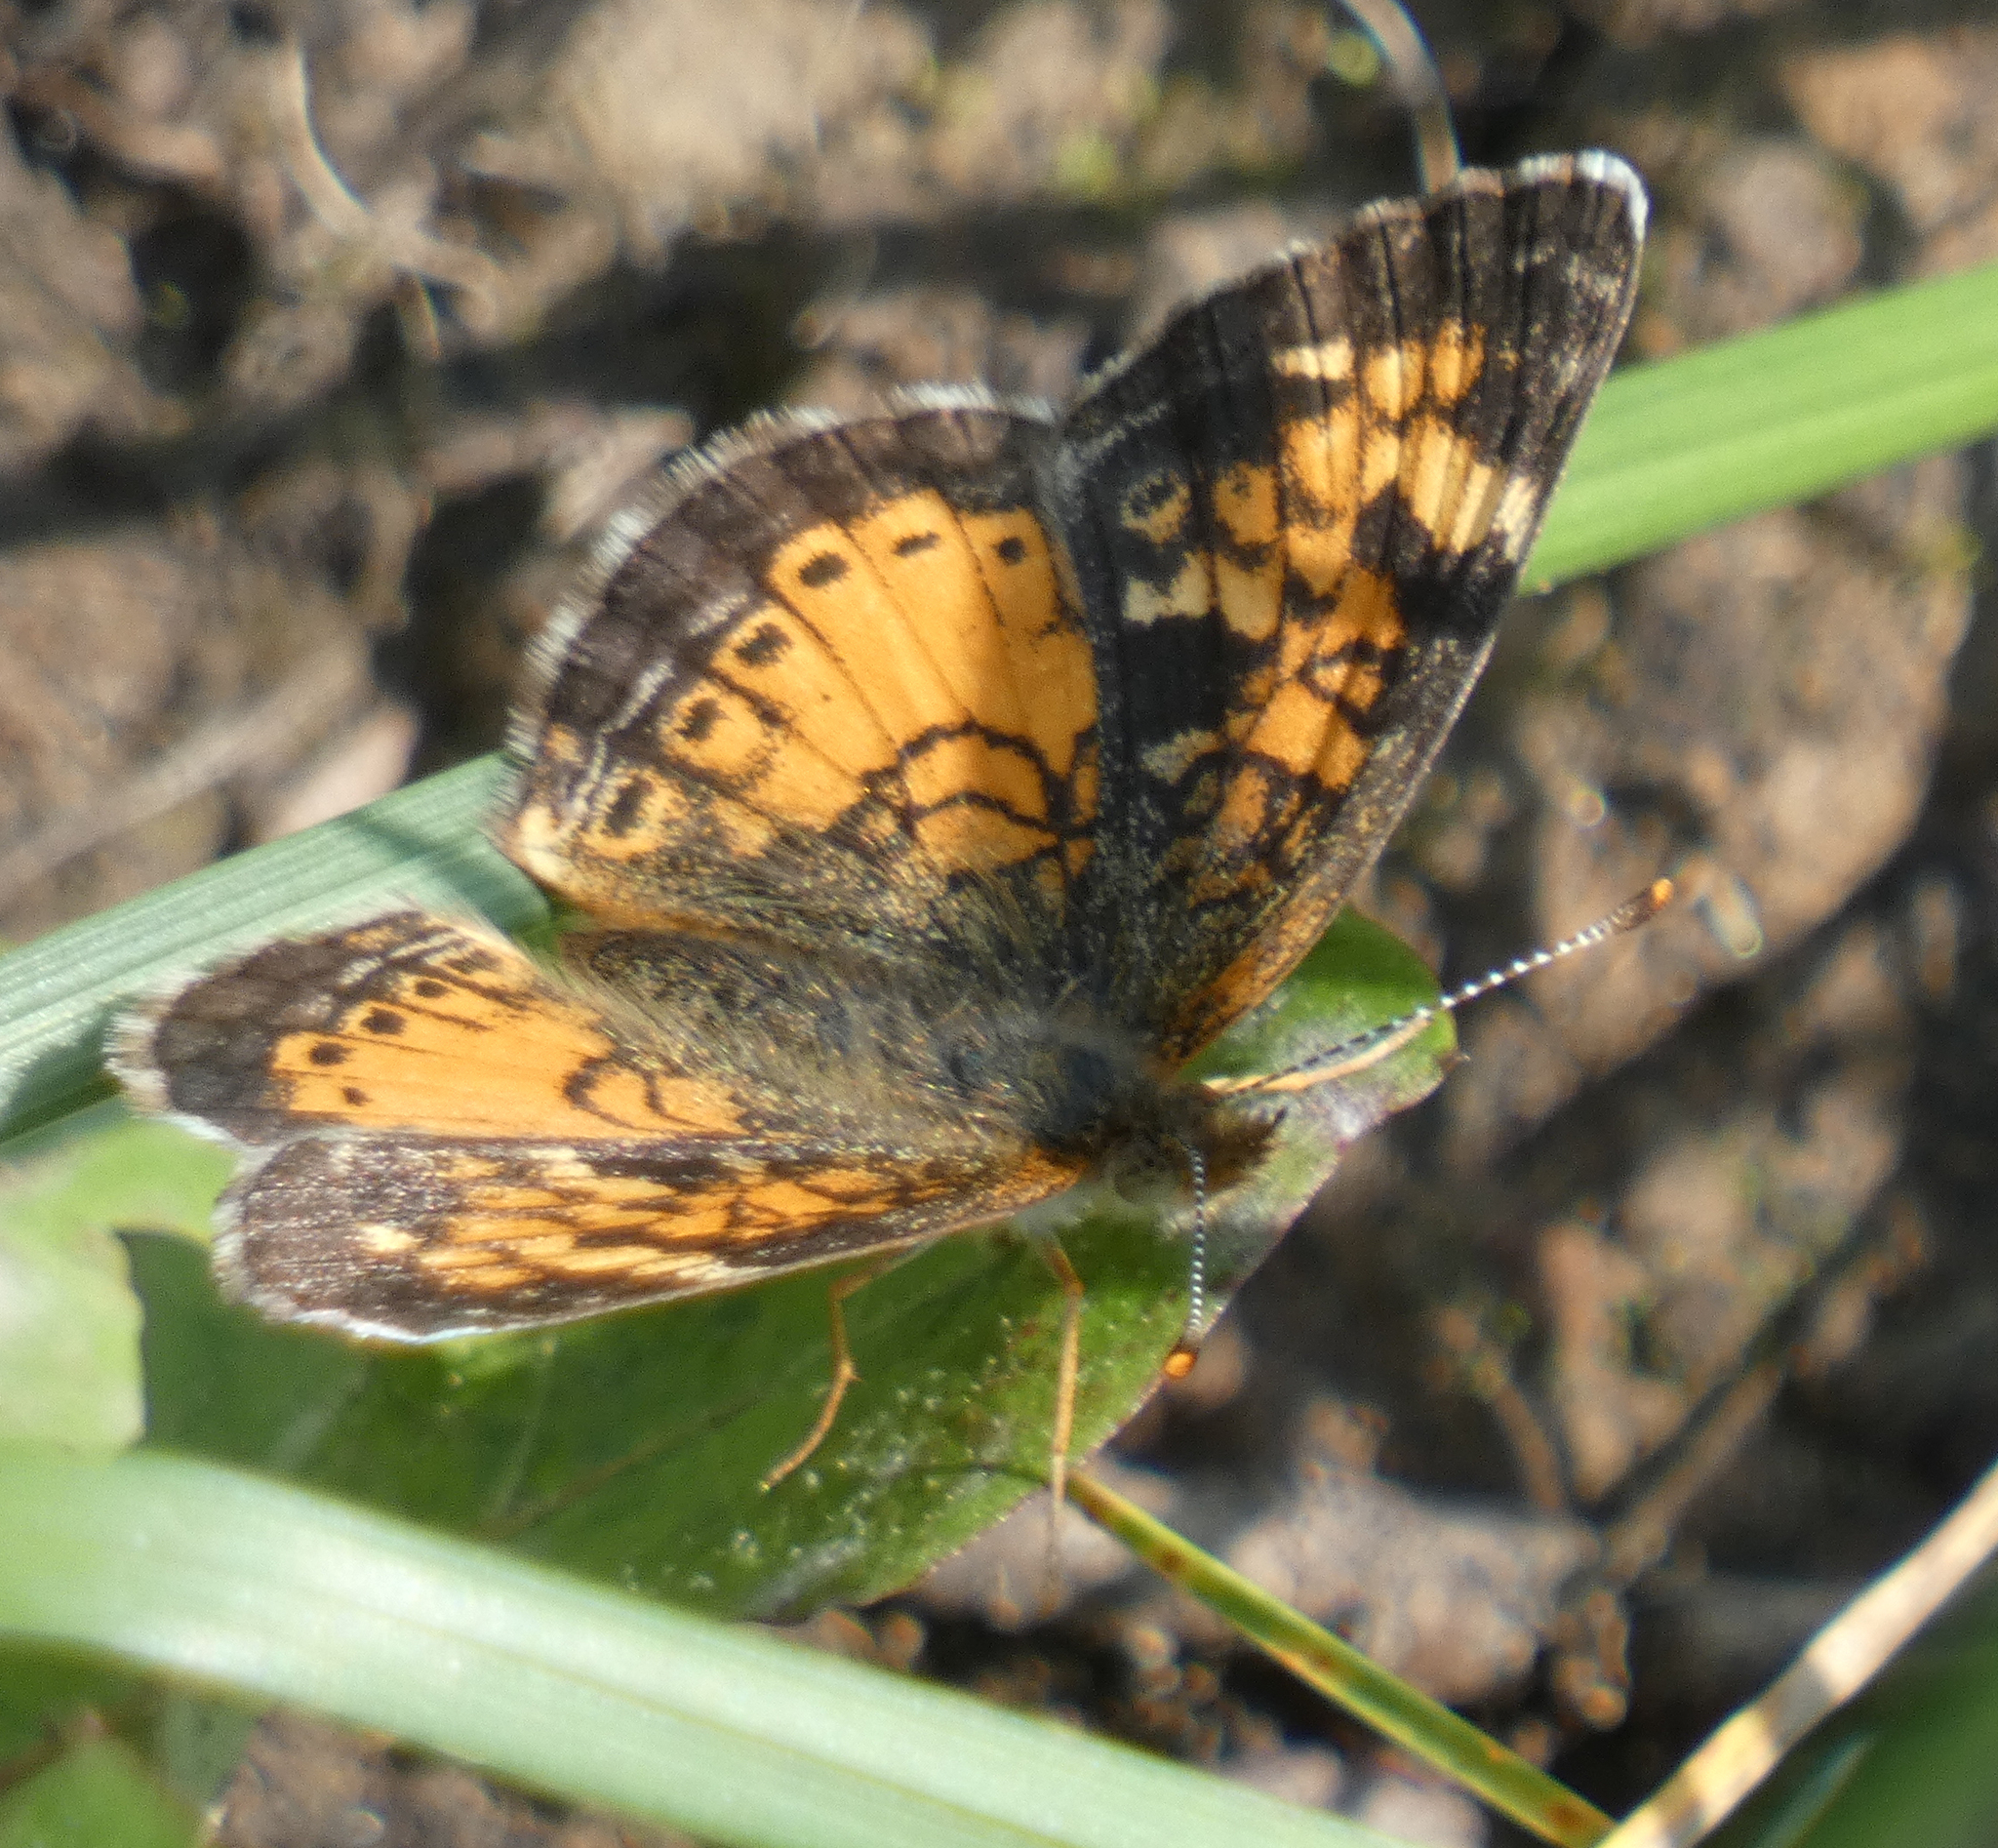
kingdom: Animalia
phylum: Arthropoda
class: Insecta
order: Lepidoptera
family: Nymphalidae
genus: Phyciodes
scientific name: Phyciodes tharos
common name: Pearl crescent
